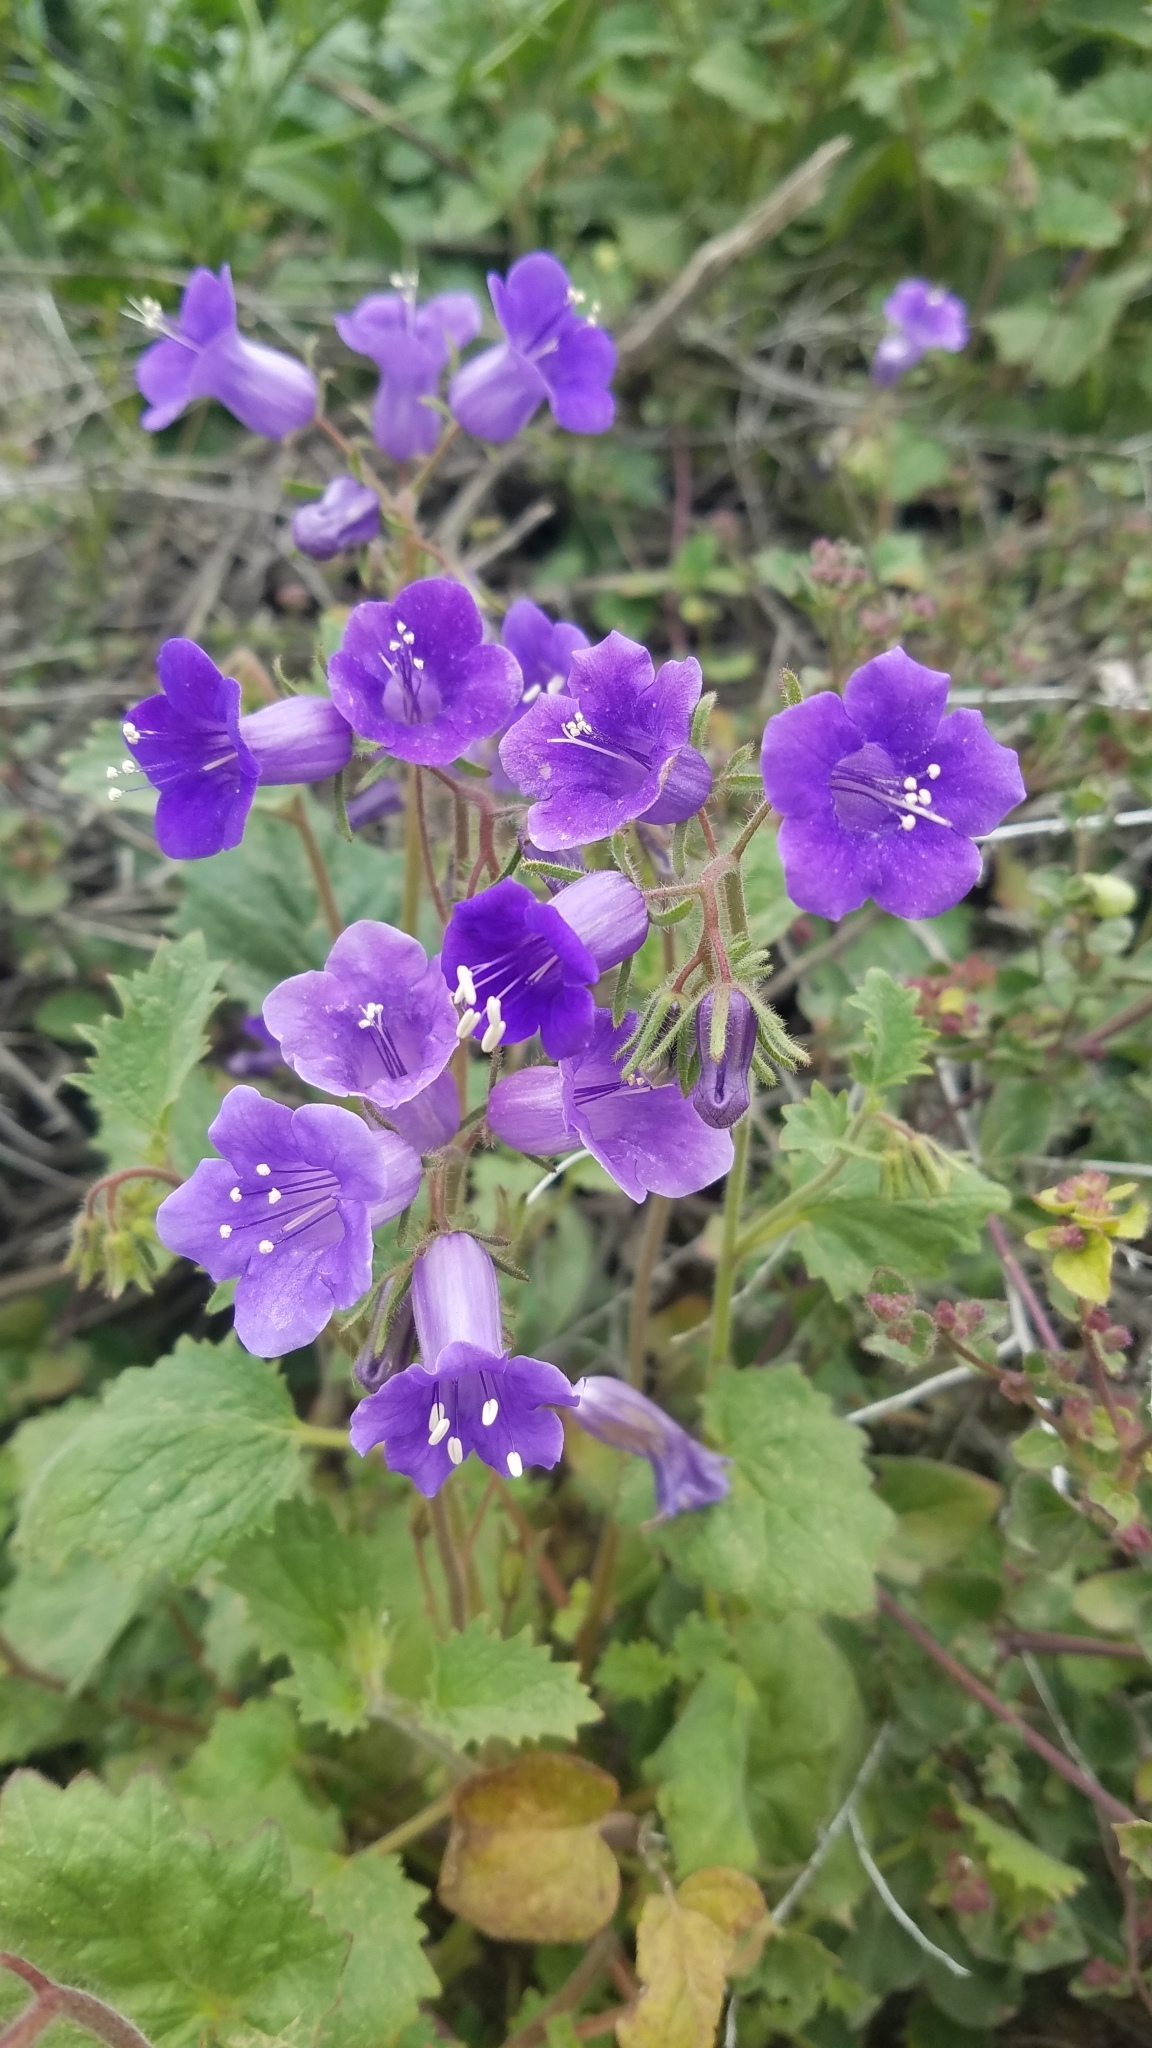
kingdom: Plantae
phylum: Tracheophyta
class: Magnoliopsida
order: Boraginales
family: Hydrophyllaceae
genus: Phacelia
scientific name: Phacelia minor
